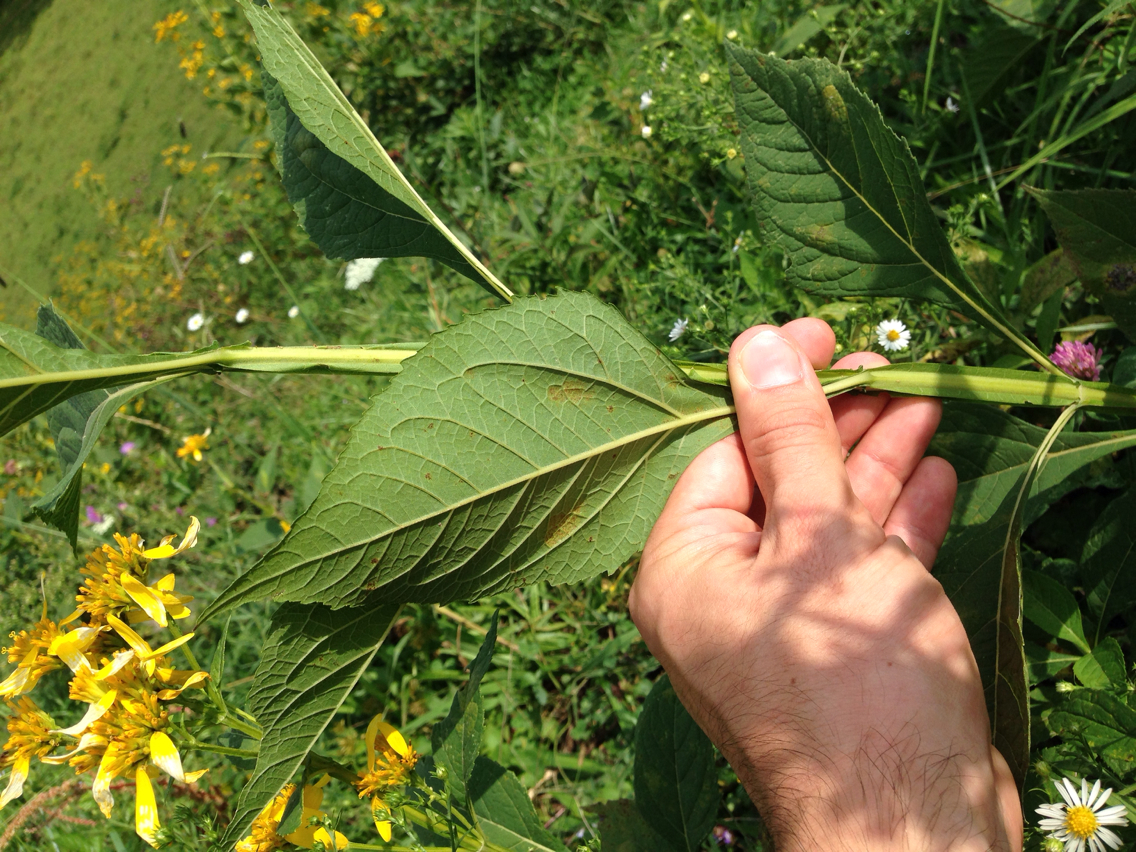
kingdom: Plantae
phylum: Tracheophyta
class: Magnoliopsida
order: Asterales
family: Asteraceae
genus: Verbesina
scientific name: Verbesina occidentalis
